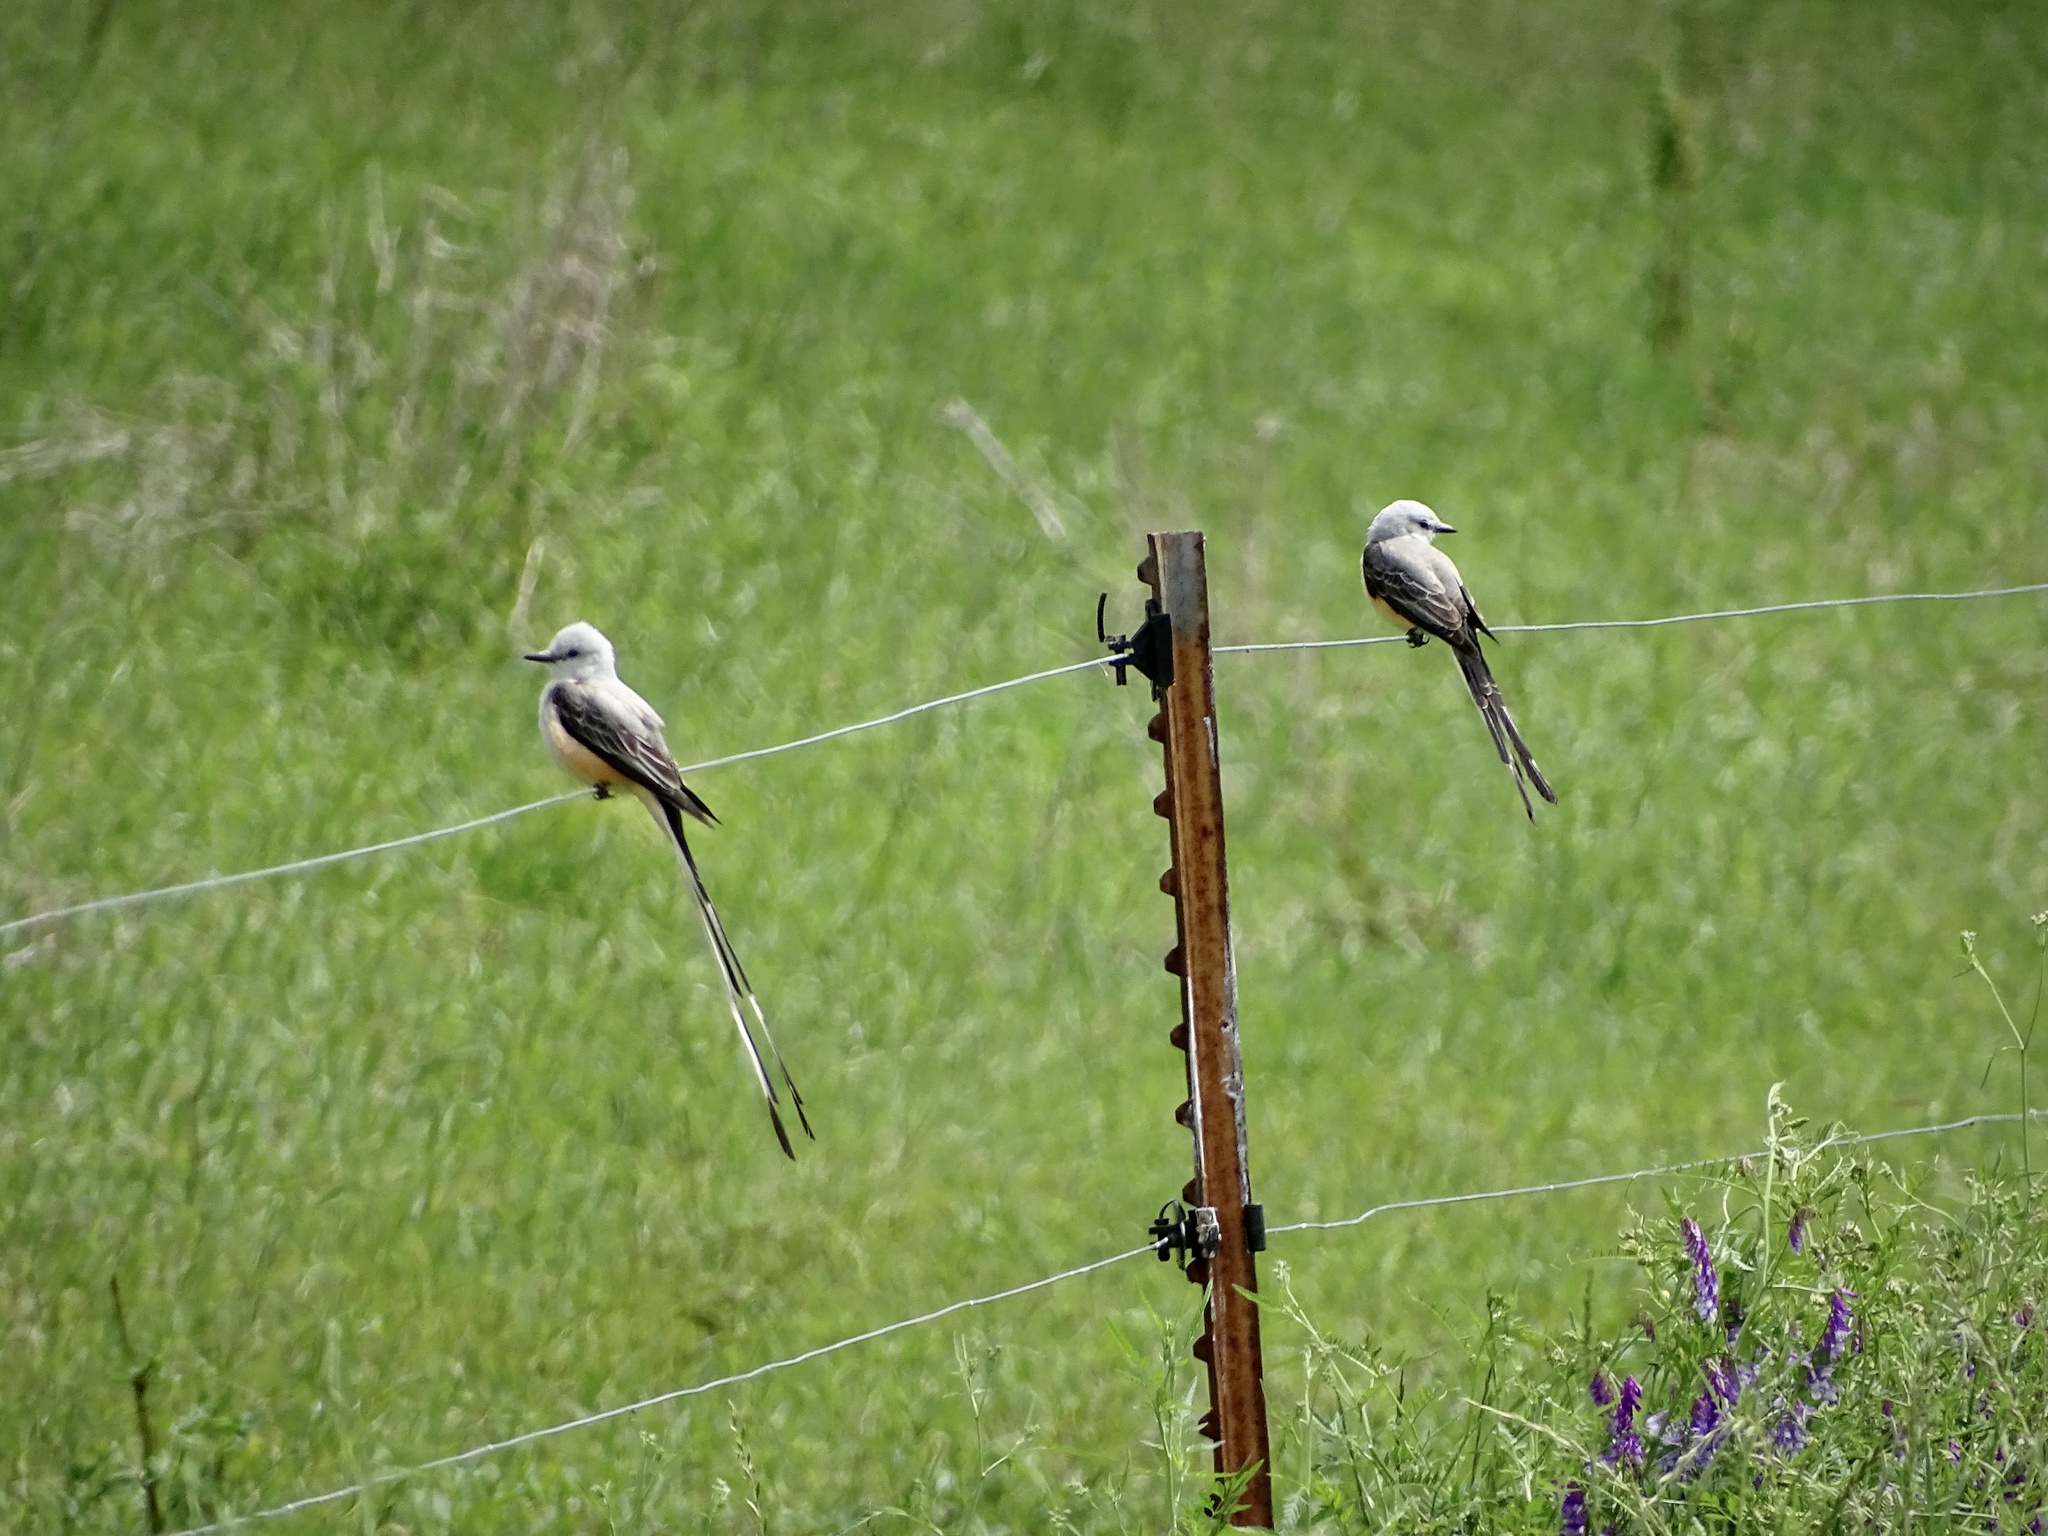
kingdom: Animalia
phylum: Chordata
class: Aves
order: Passeriformes
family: Tyrannidae
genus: Tyrannus
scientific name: Tyrannus forficatus
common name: Scissor-tailed flycatcher
